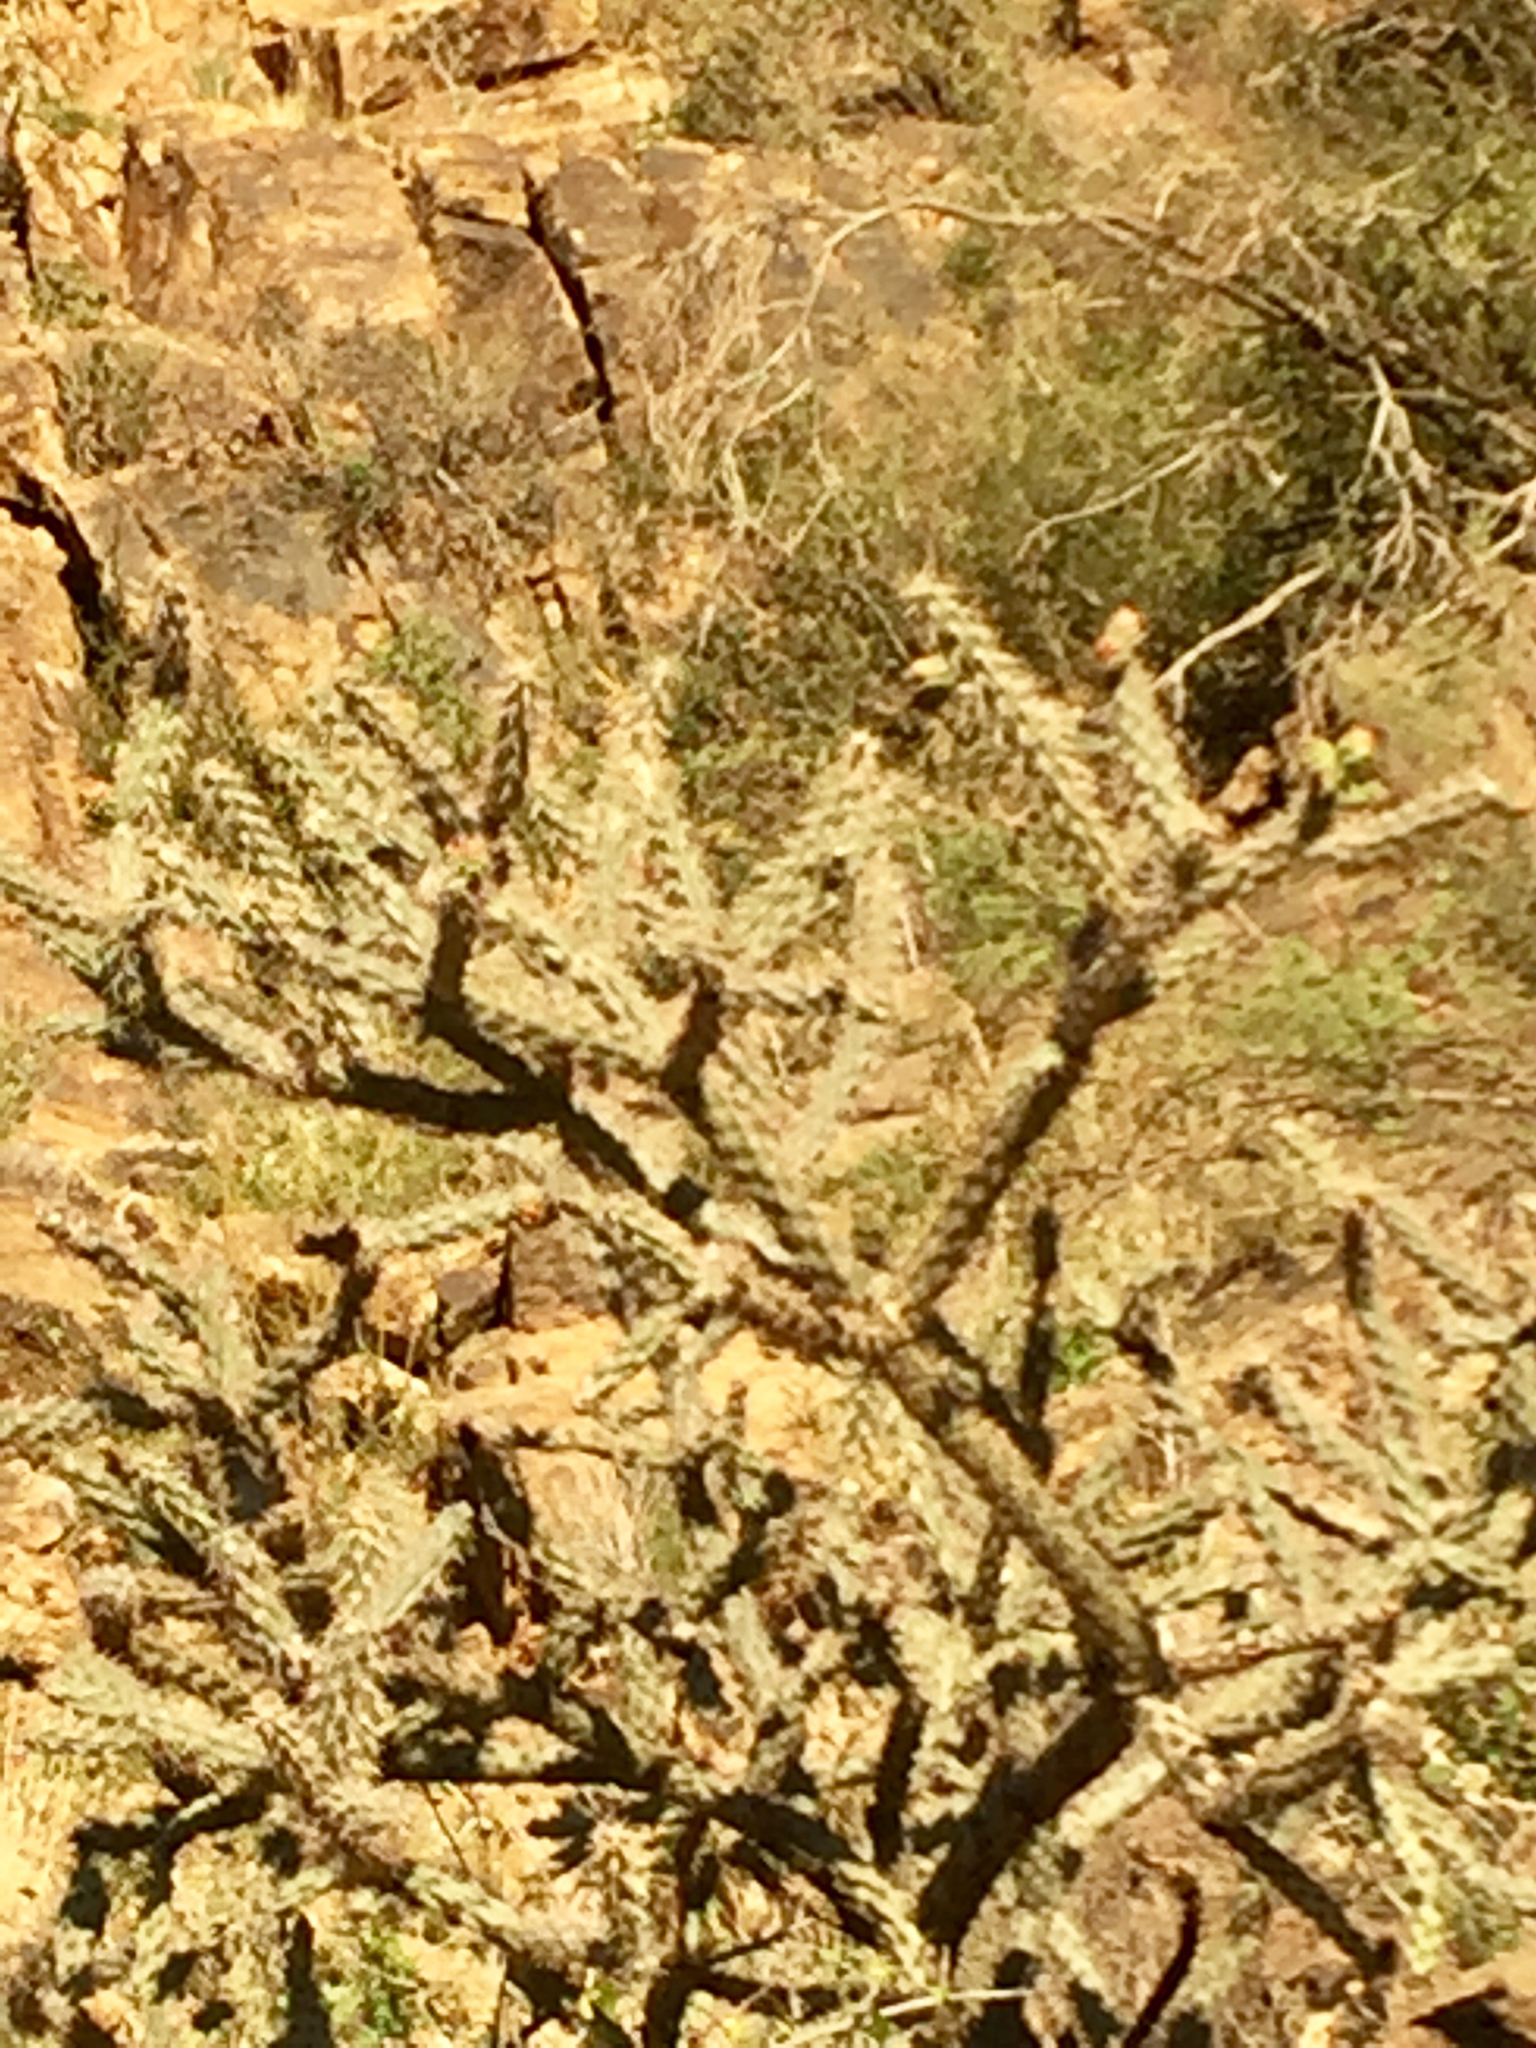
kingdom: Plantae
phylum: Tracheophyta
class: Magnoliopsida
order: Caryophyllales
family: Cactaceae
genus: Cylindropuntia
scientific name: Cylindropuntia acanthocarpa
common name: Buckhorn cholla
